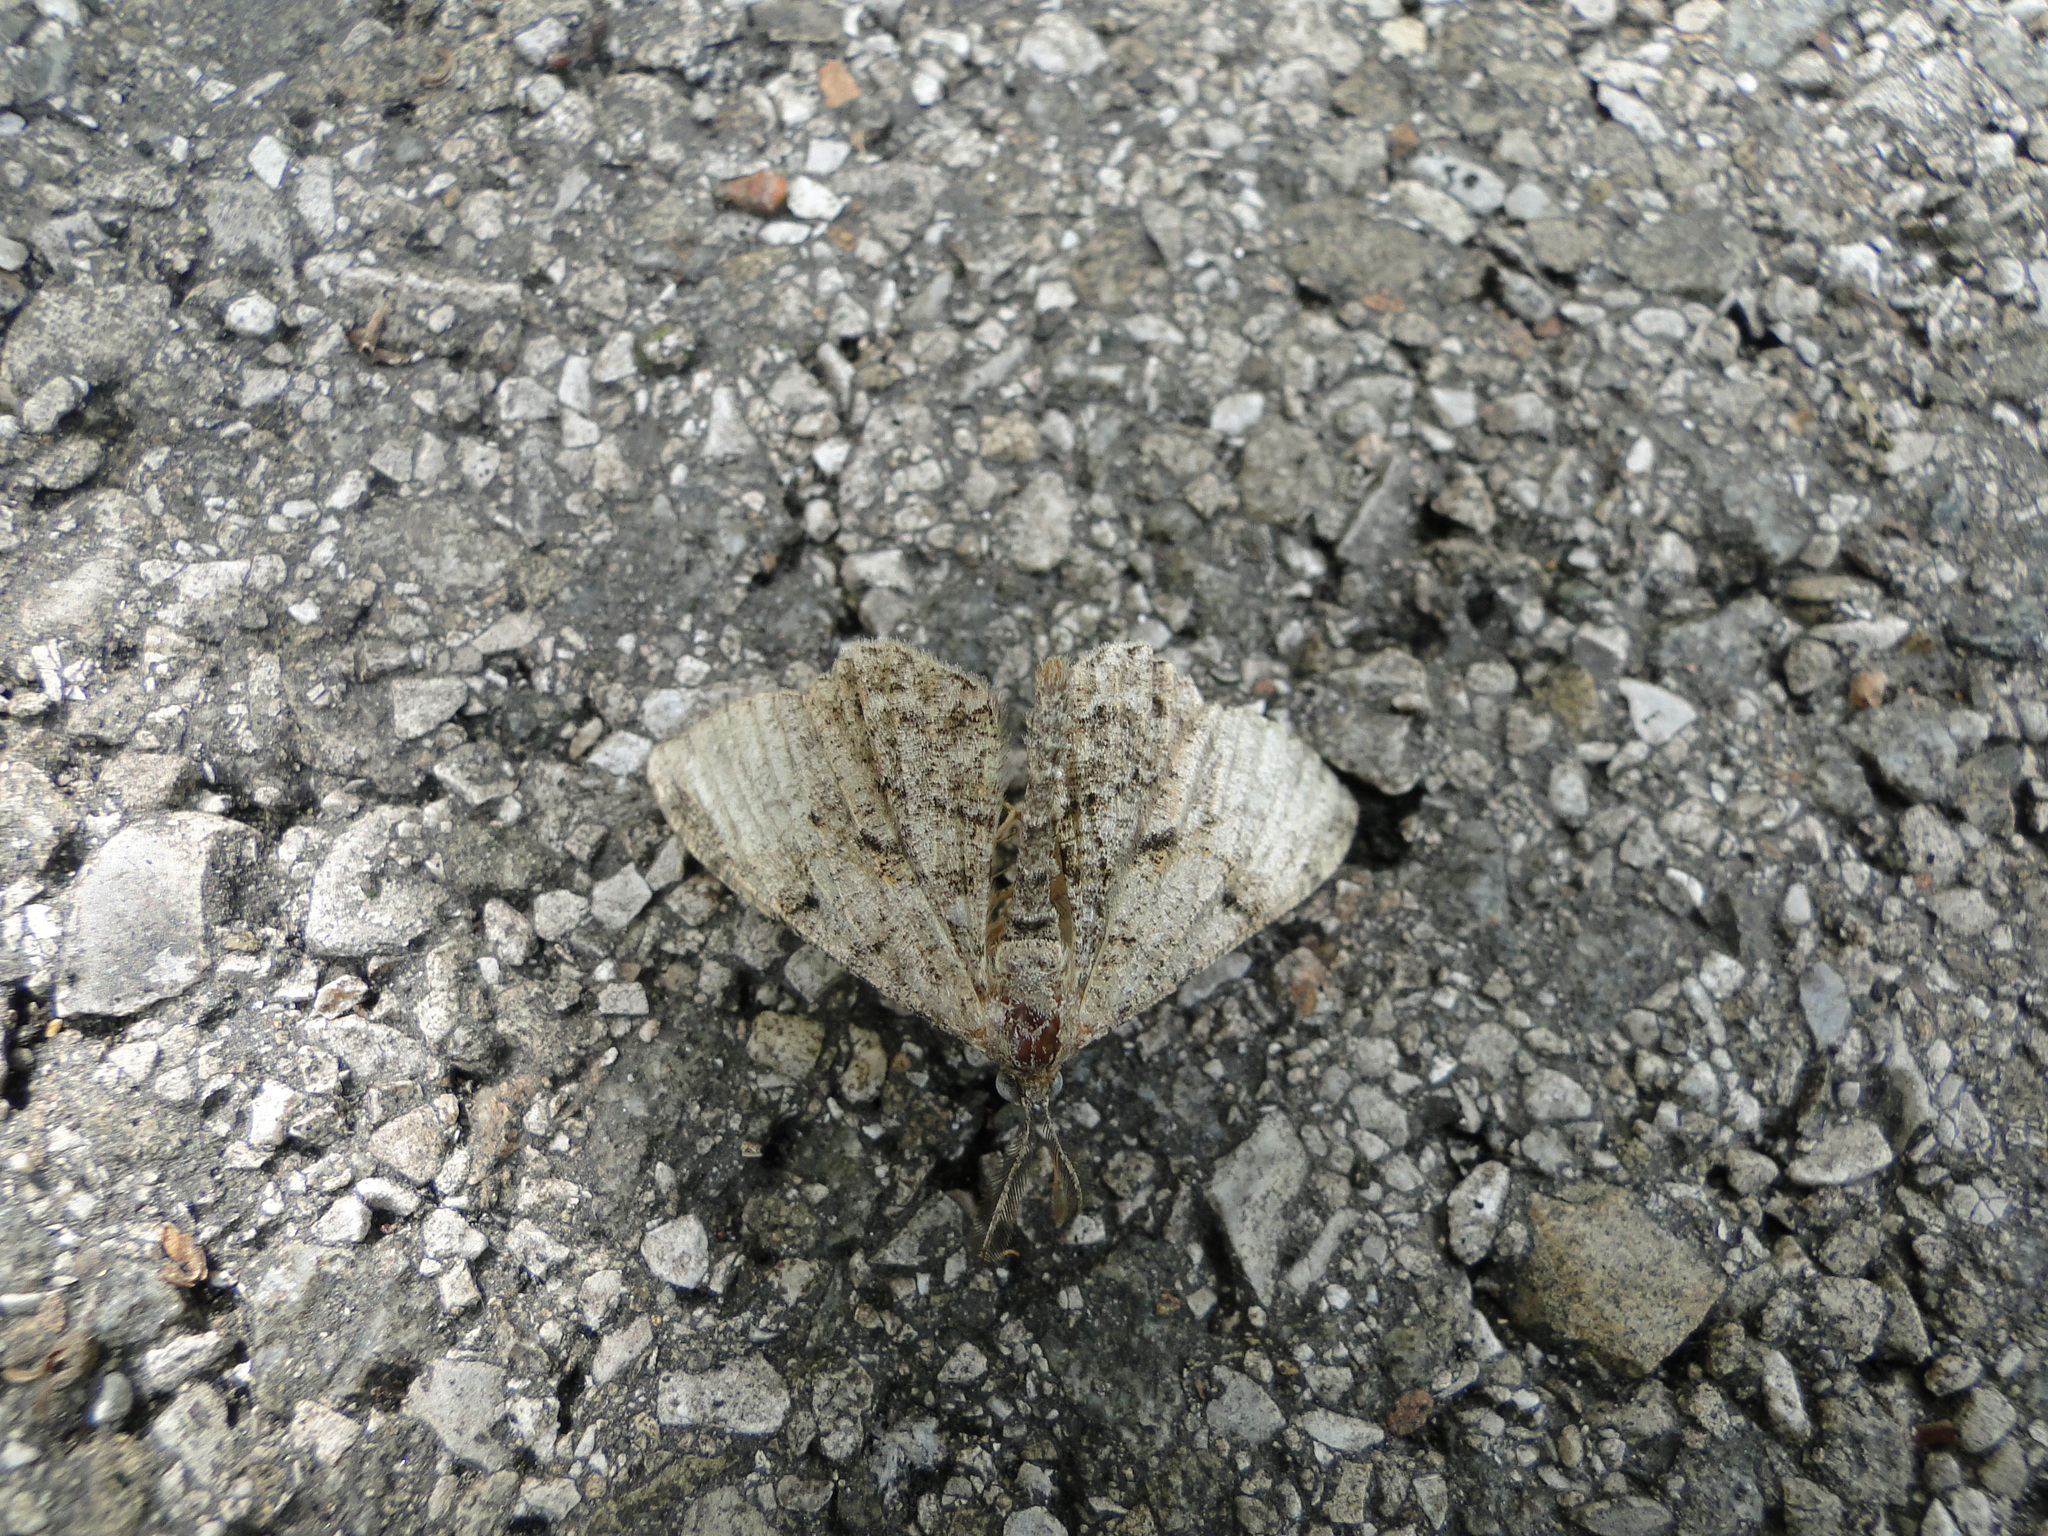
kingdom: Animalia
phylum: Arthropoda
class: Insecta
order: Lepidoptera
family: Geometridae
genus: Peribatodes
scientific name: Peribatodes rhomboidaria
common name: Willow beauty
